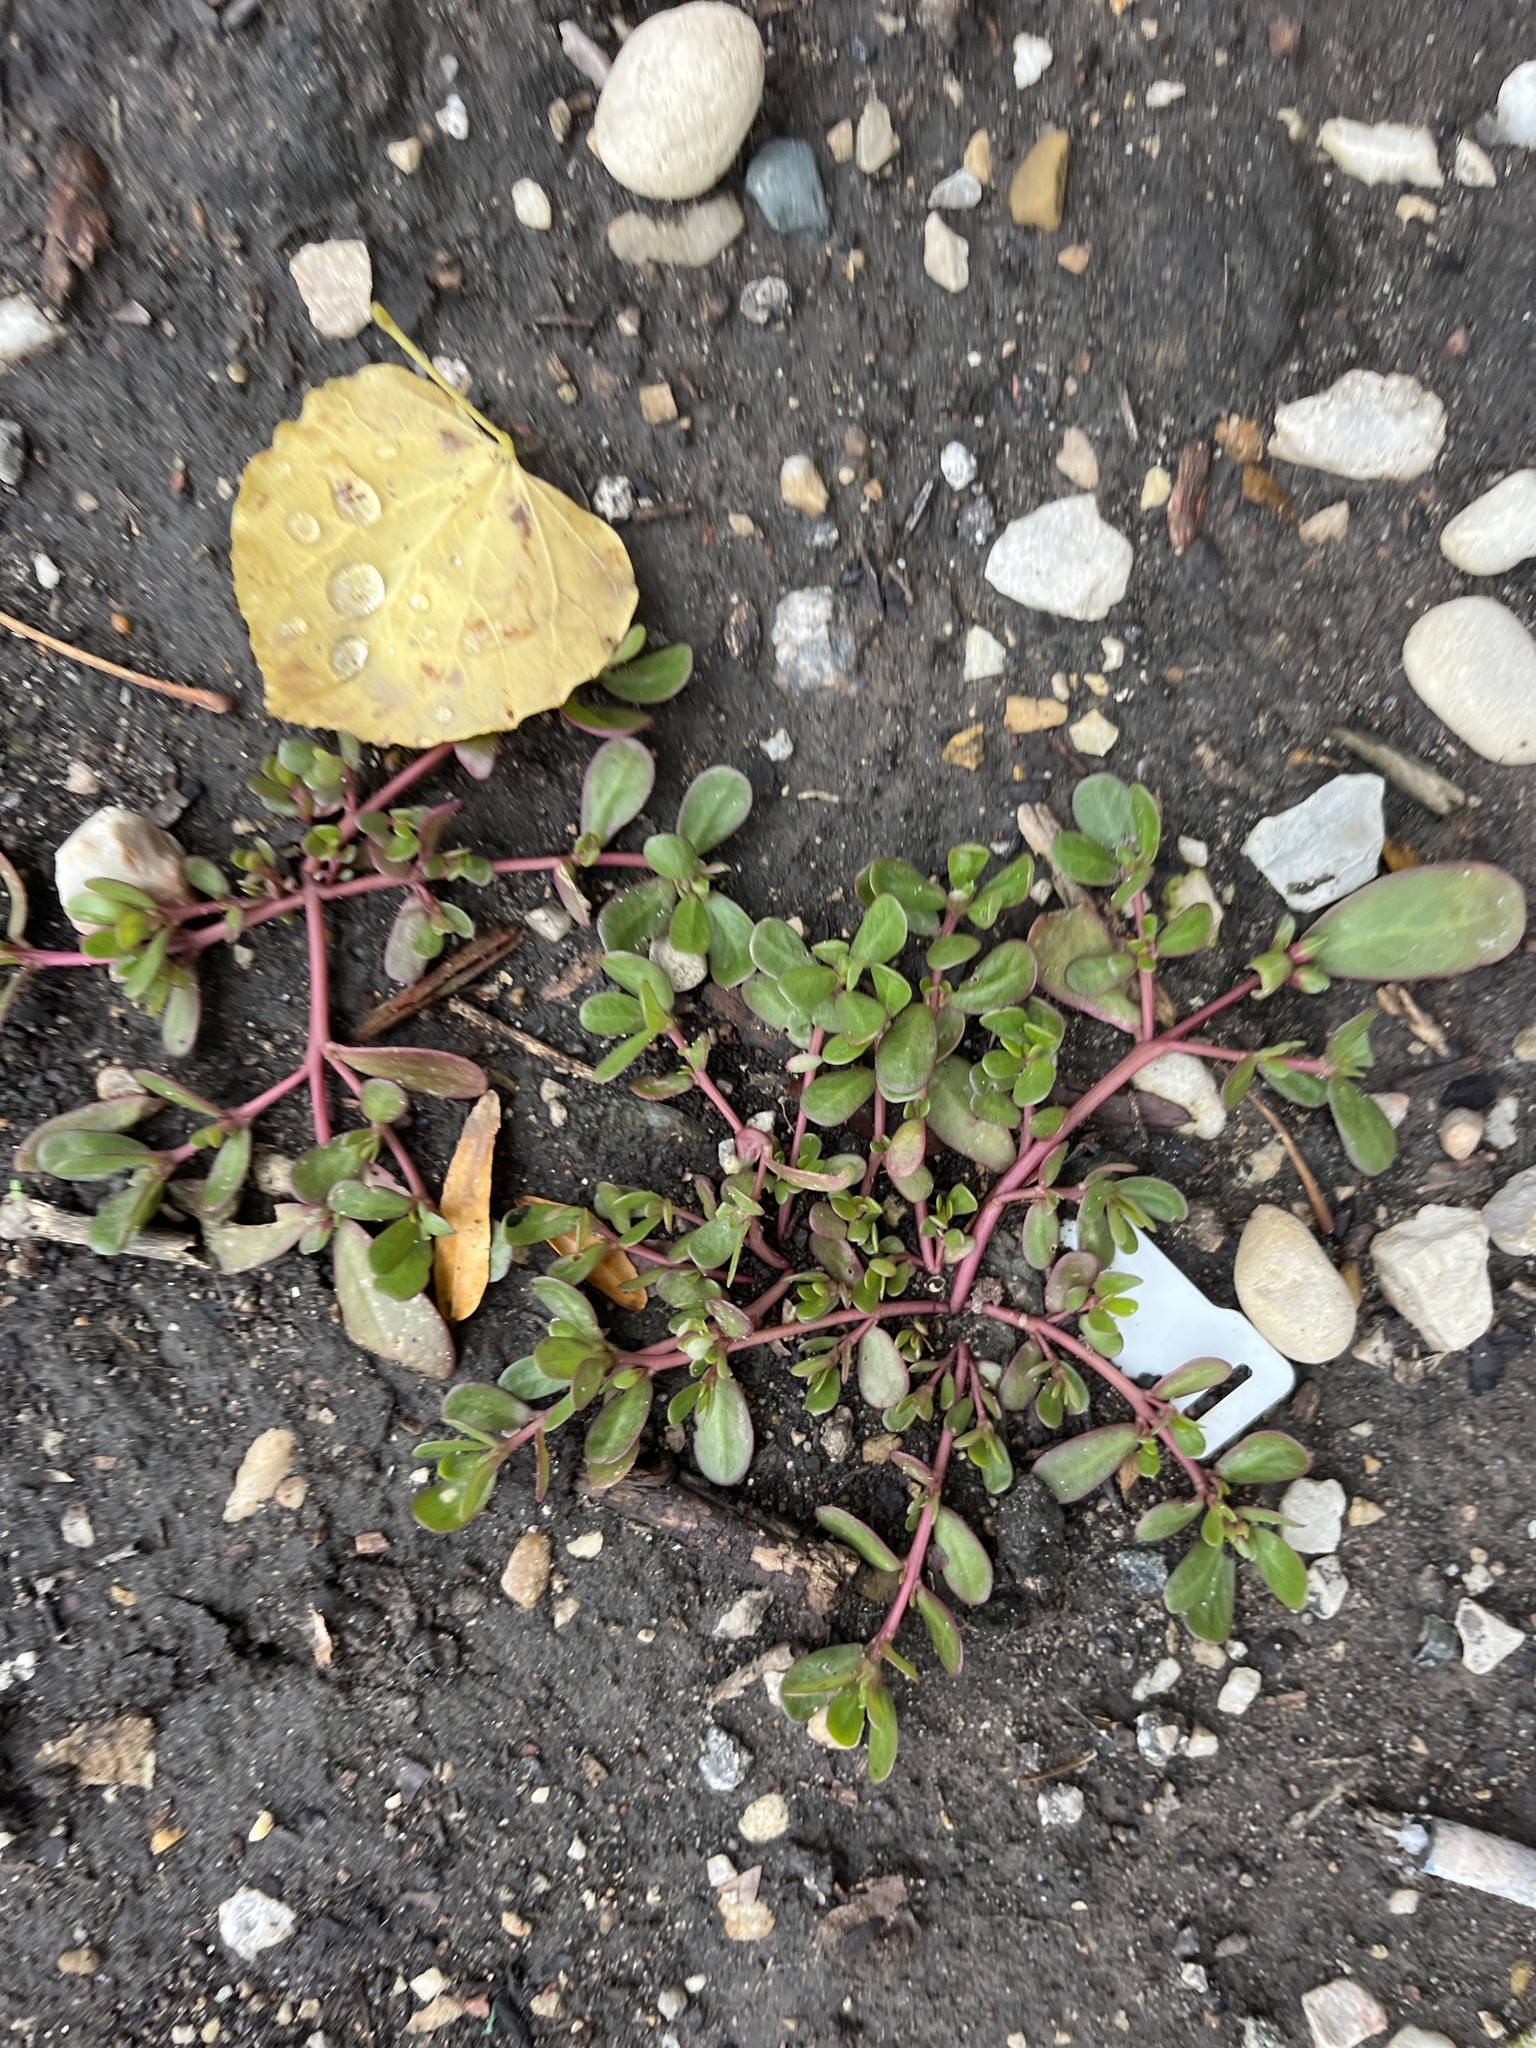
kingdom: Plantae
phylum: Tracheophyta
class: Magnoliopsida
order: Caryophyllales
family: Portulacaceae
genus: Portulaca
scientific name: Portulaca oleracea
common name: Common purslane
